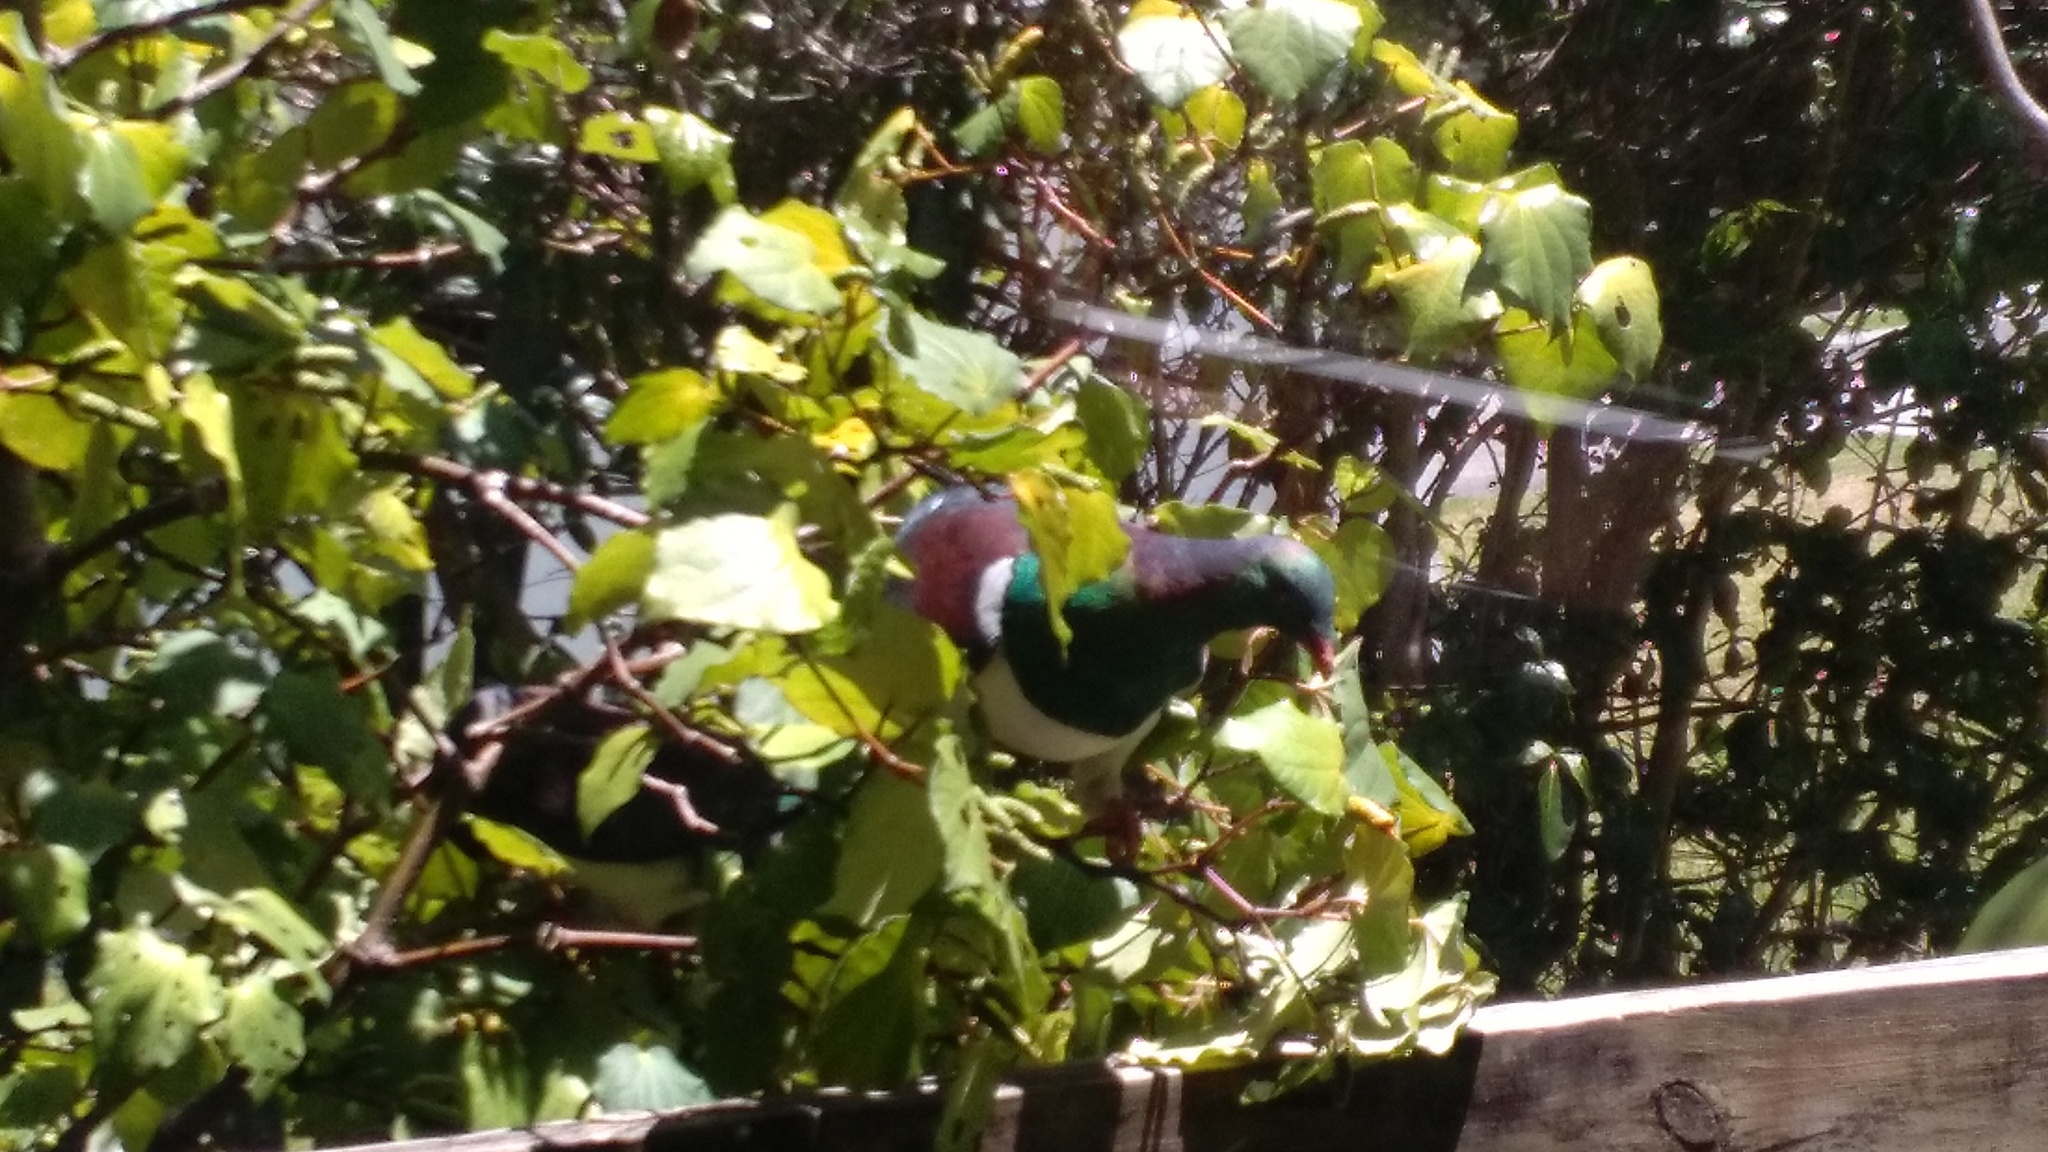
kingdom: Animalia
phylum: Chordata
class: Aves
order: Columbiformes
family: Columbidae
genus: Hemiphaga
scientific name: Hemiphaga novaeseelandiae
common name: New zealand pigeon
